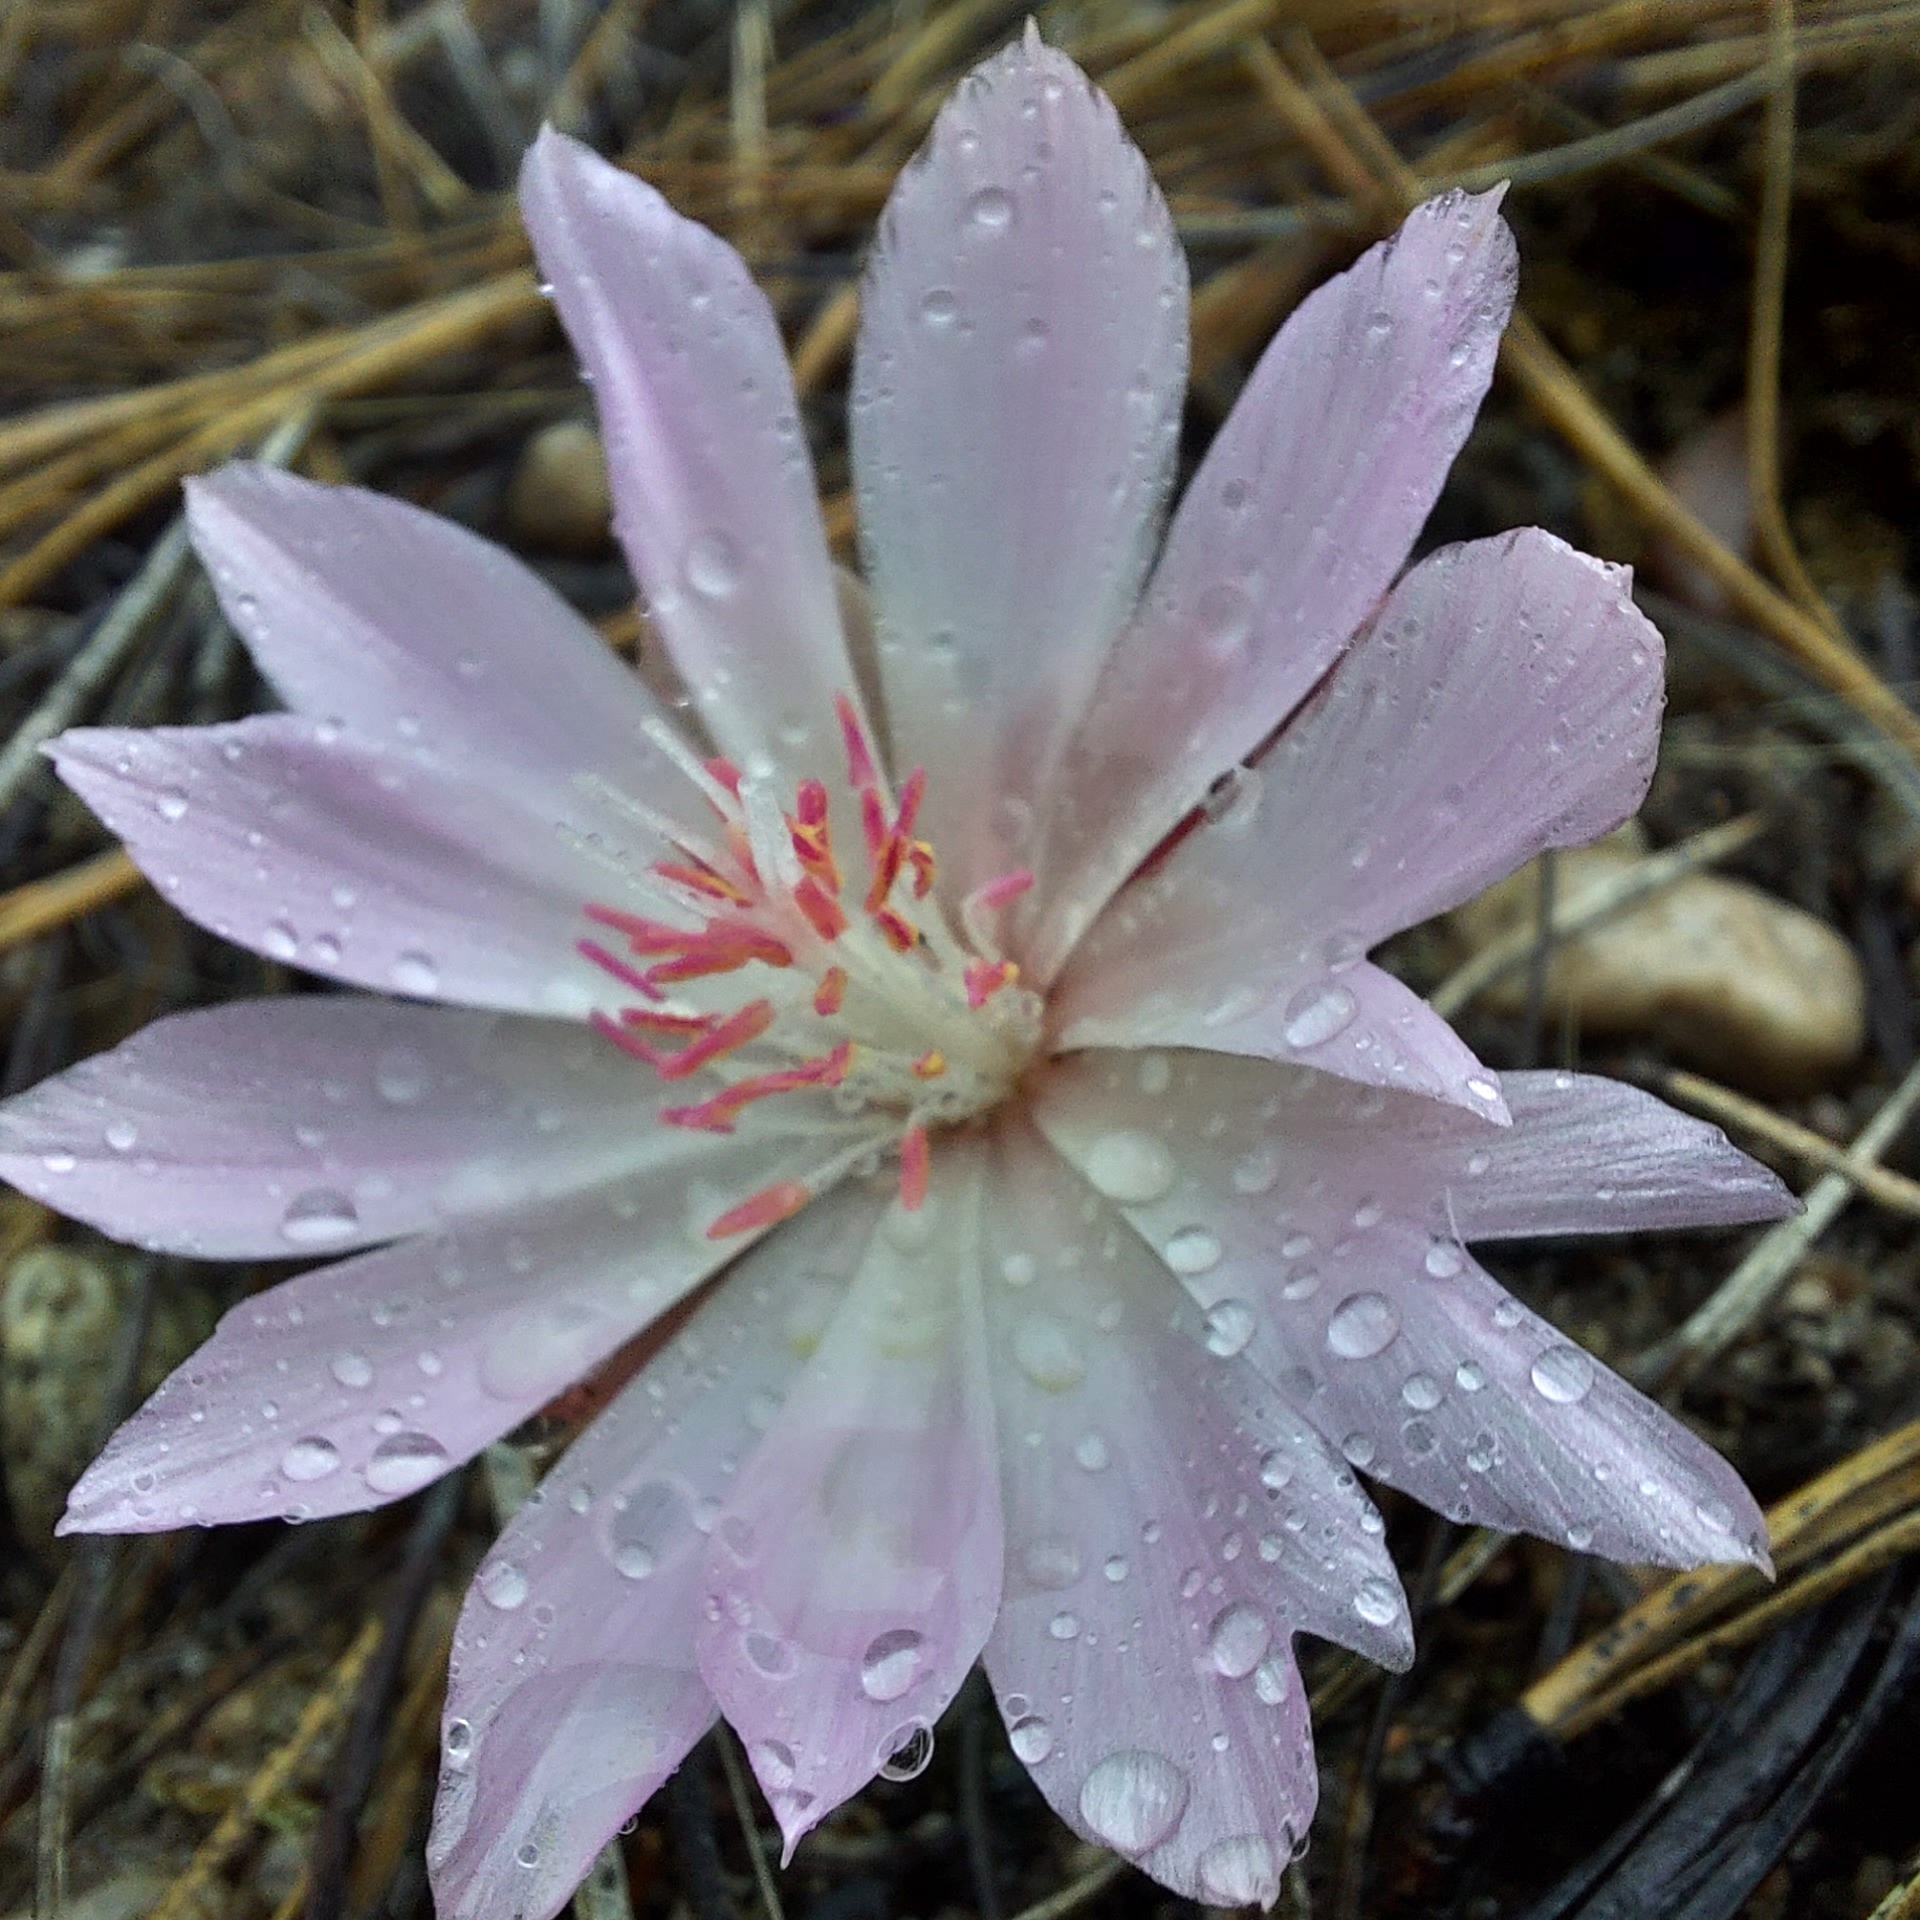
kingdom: Plantae
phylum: Tracheophyta
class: Magnoliopsida
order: Caryophyllales
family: Montiaceae
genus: Lewisia
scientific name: Lewisia rediviva
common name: Bitter-root
